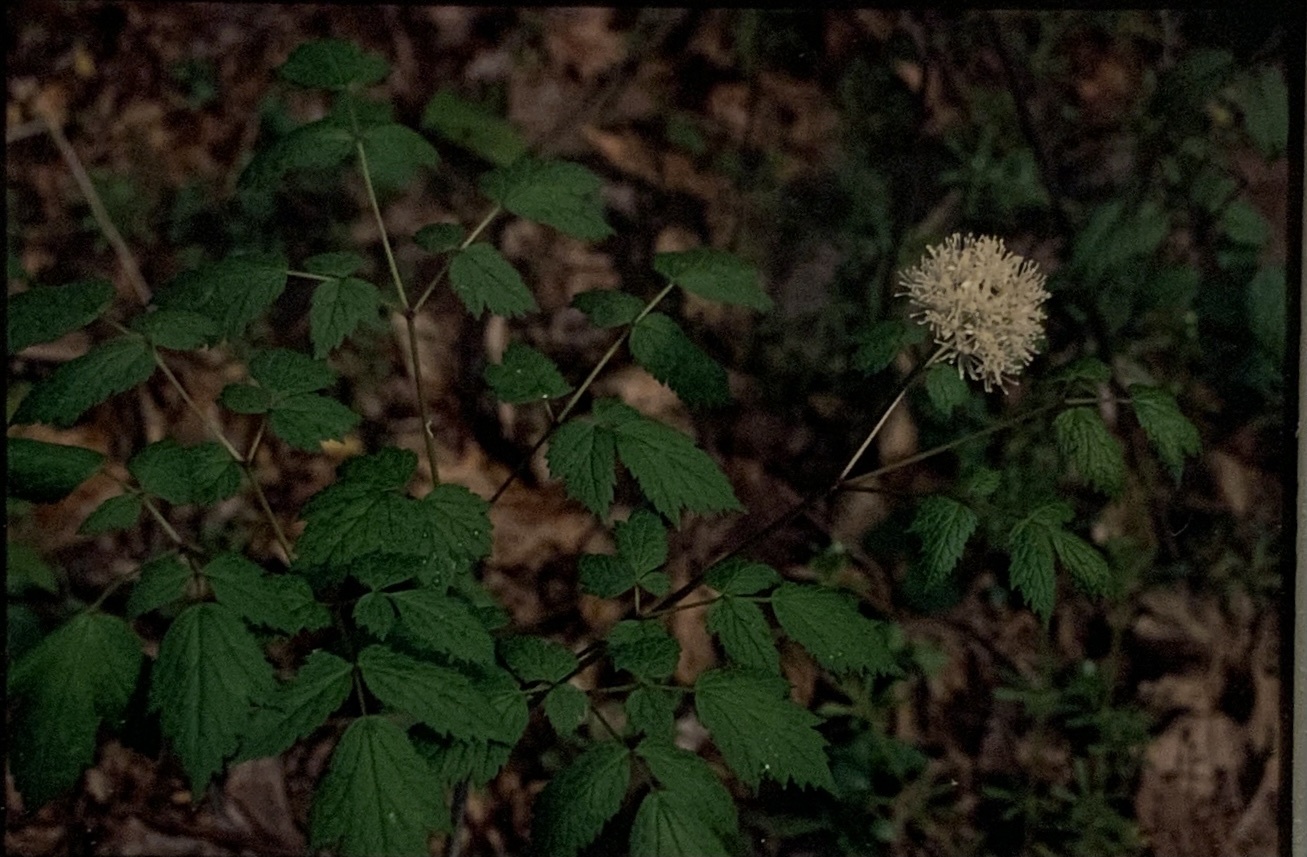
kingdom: Plantae
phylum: Tracheophyta
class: Magnoliopsida
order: Ranunculales
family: Ranunculaceae
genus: Actaea
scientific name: Actaea rubra
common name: Red baneberry
